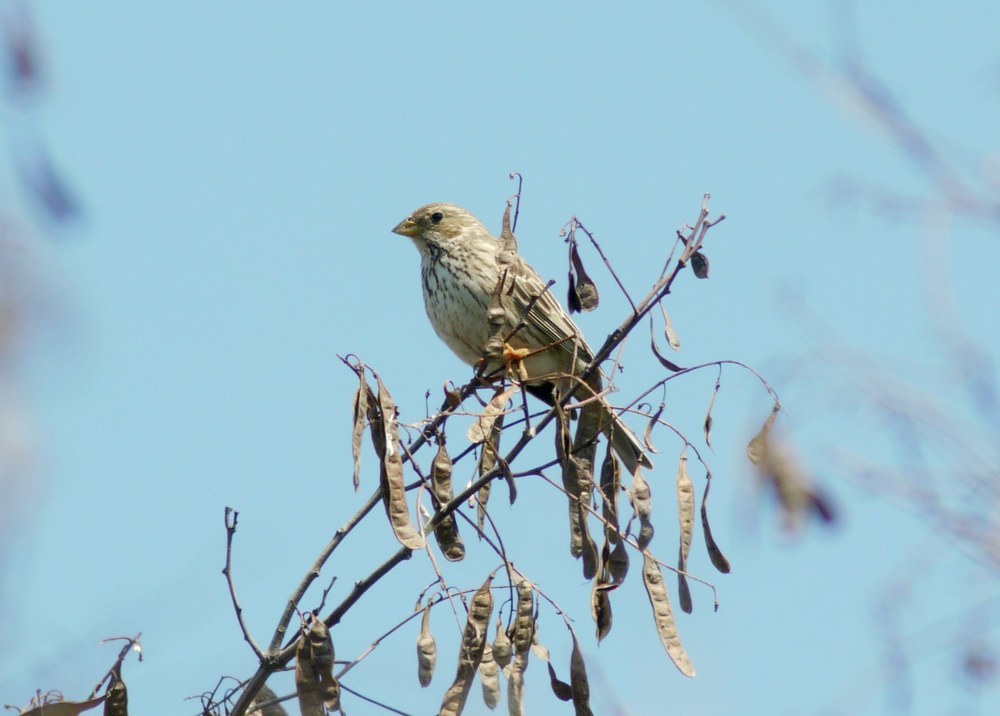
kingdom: Animalia
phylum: Chordata
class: Aves
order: Passeriformes
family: Emberizidae
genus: Emberiza
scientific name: Emberiza calandra
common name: Corn bunting
